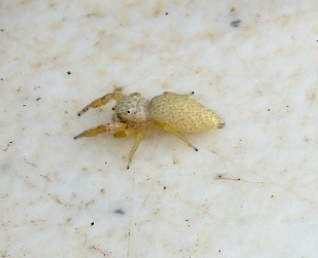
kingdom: Animalia
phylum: Arthropoda
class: Arachnida
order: Araneae
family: Salticidae
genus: Hentzia
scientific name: Hentzia palmarum
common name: Common hentz jumping spider
